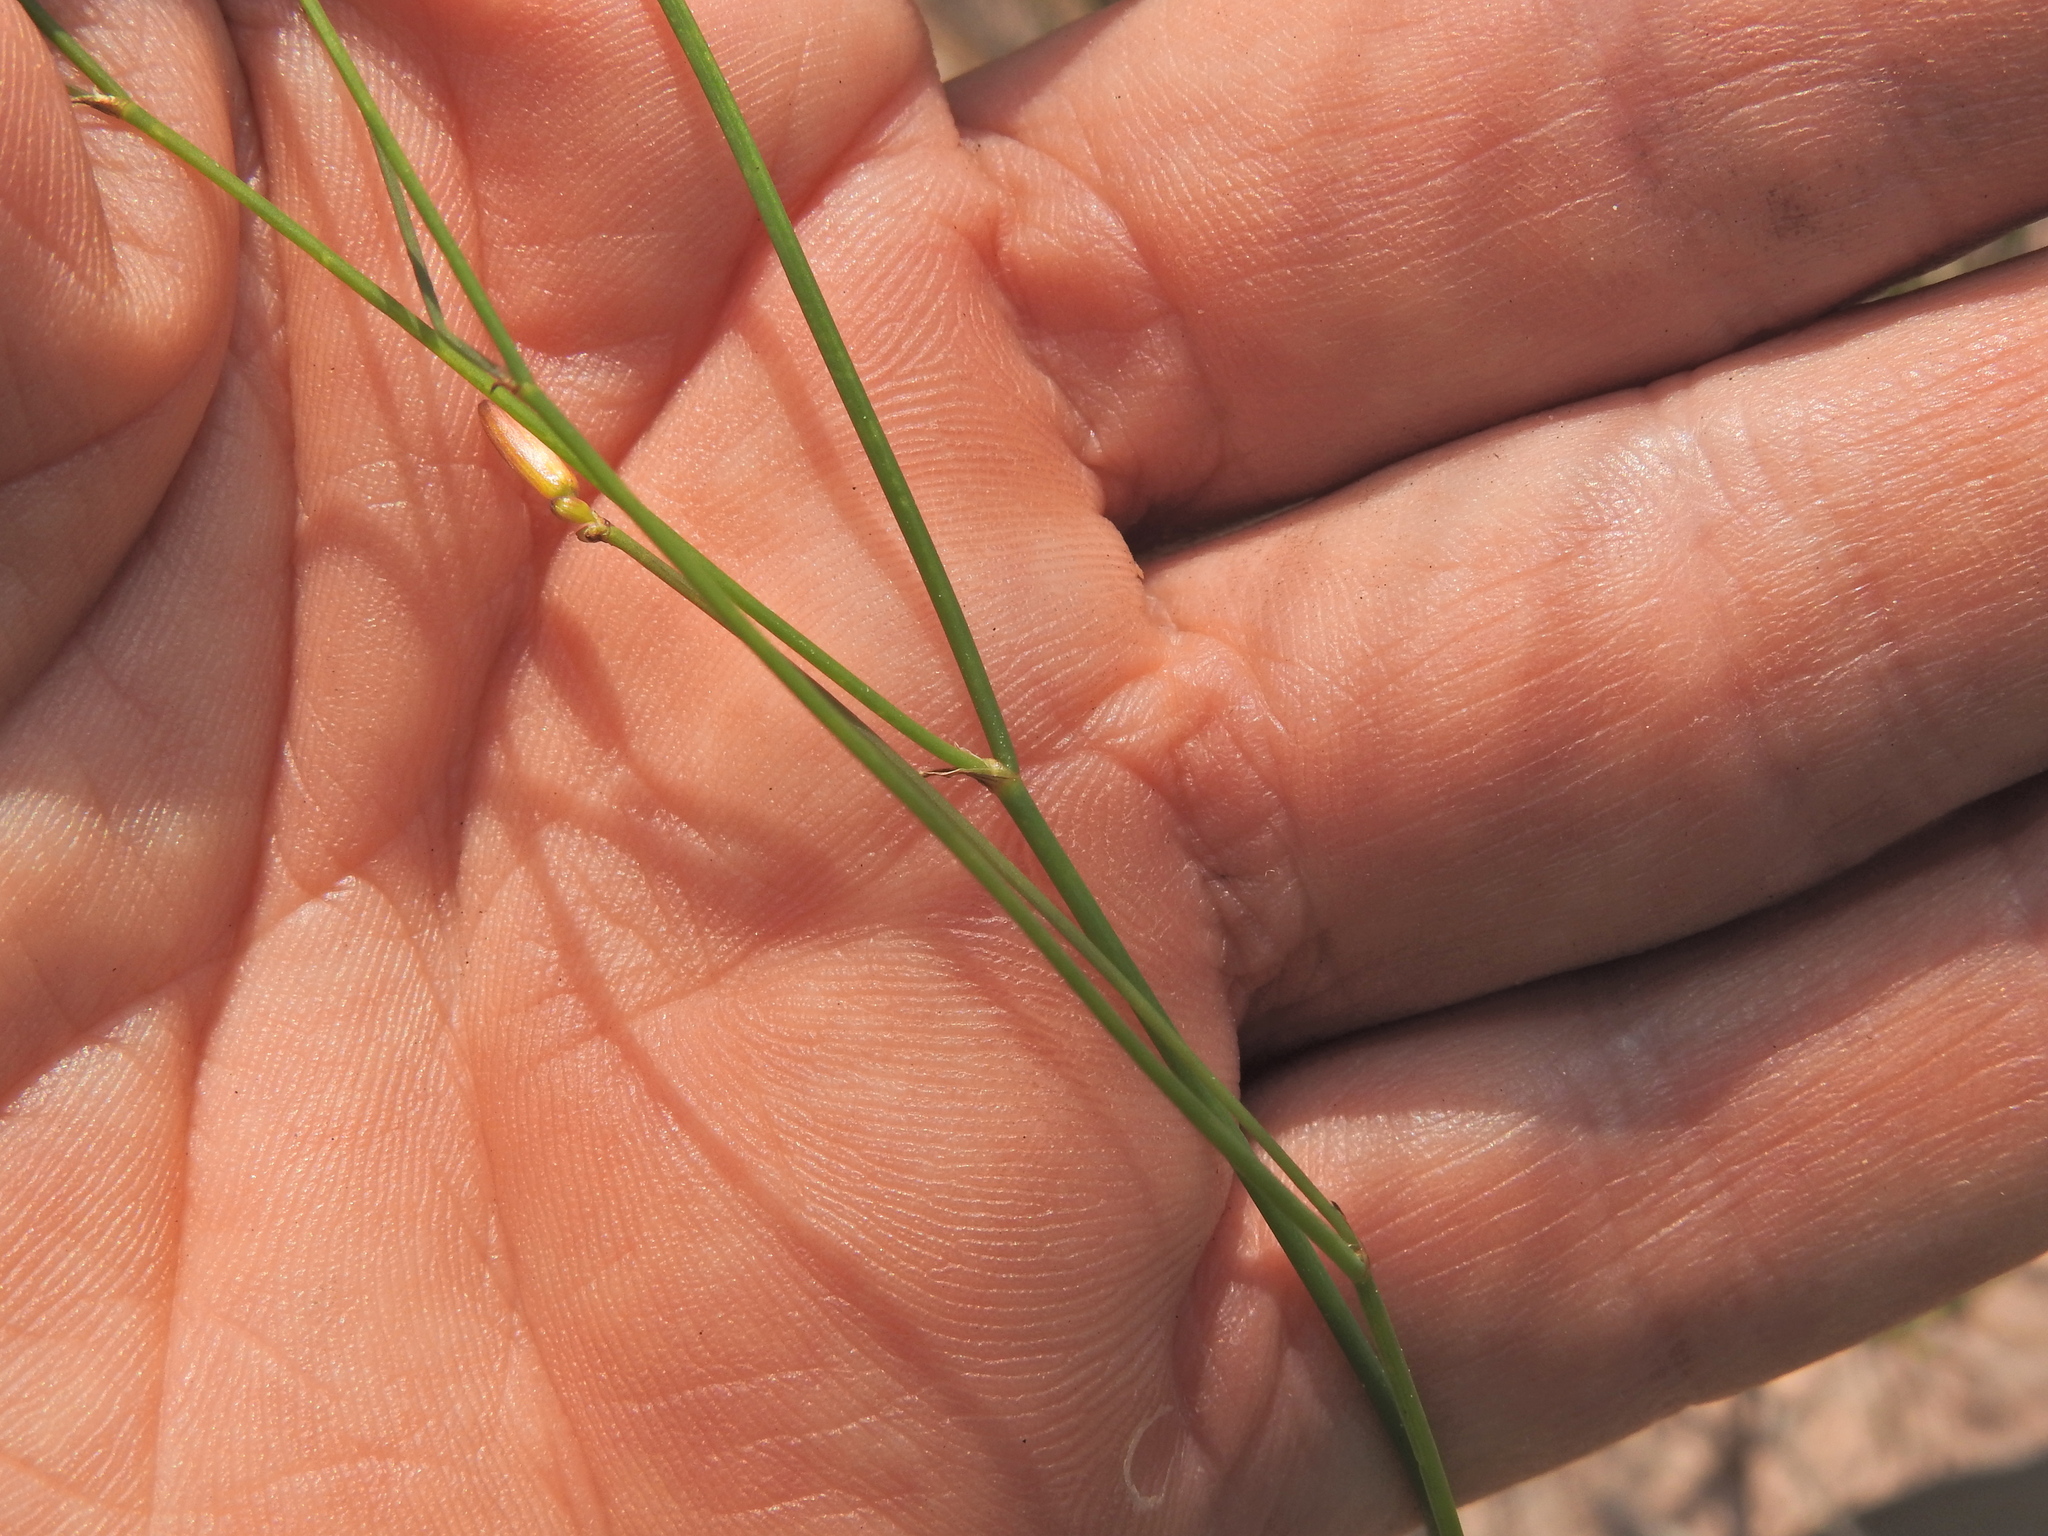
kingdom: Plantae
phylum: Tracheophyta
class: Liliopsida
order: Asparagales
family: Asphodelaceae
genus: Tricoryne
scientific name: Tricoryne elatior
